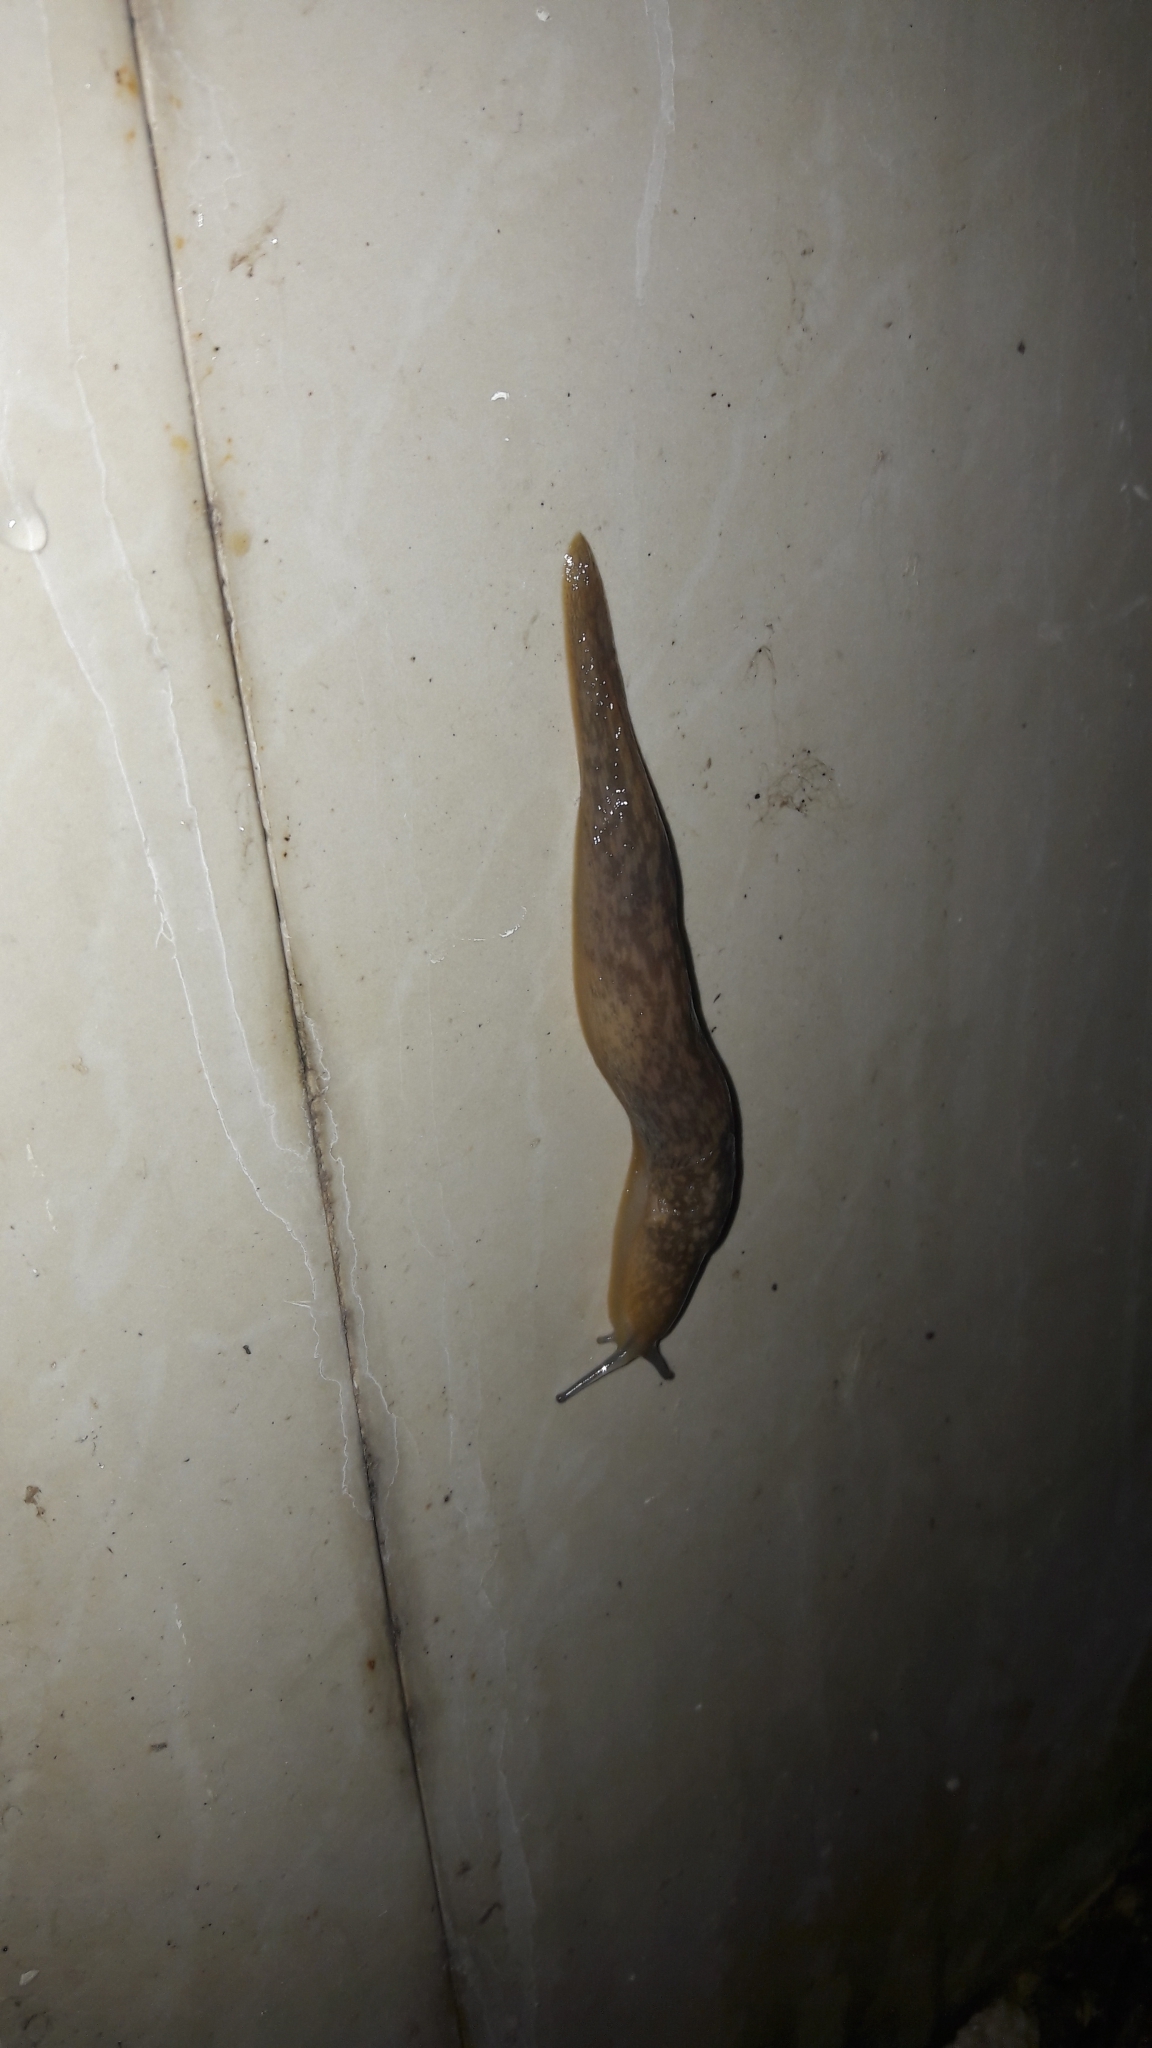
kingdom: Animalia
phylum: Mollusca
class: Gastropoda
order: Stylommatophora
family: Limacidae
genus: Limacus
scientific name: Limacus flavus
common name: Yellow gardenslug
